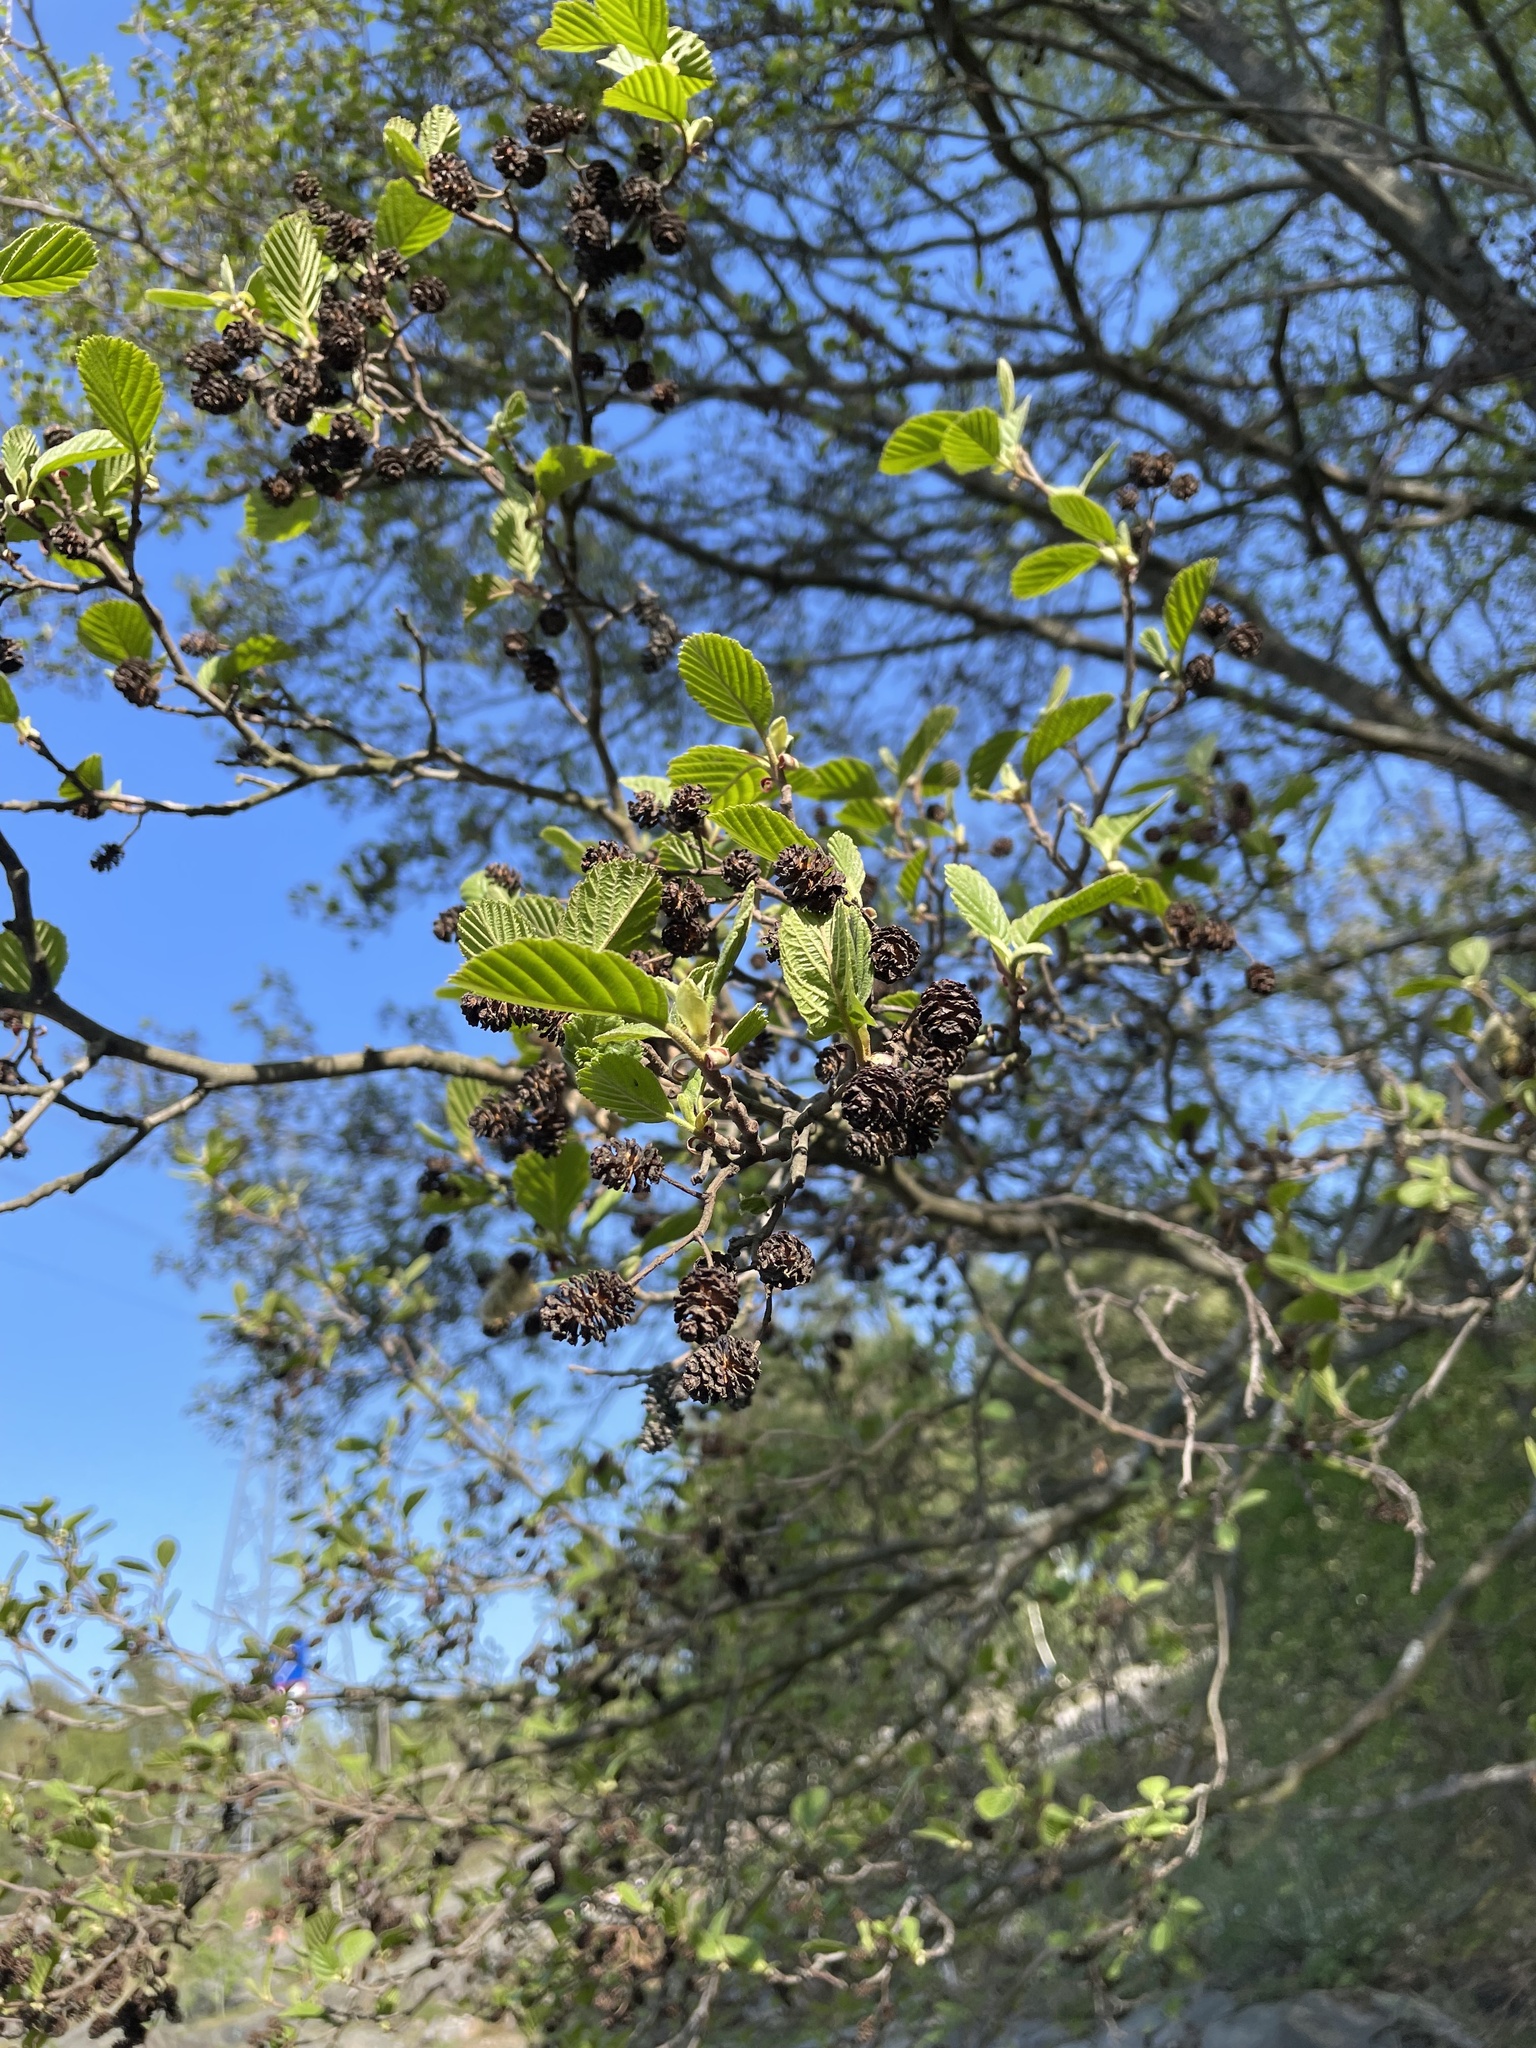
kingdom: Plantae
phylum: Tracheophyta
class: Magnoliopsida
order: Fagales
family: Betulaceae
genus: Alnus
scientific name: Alnus glutinosa
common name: Black alder
